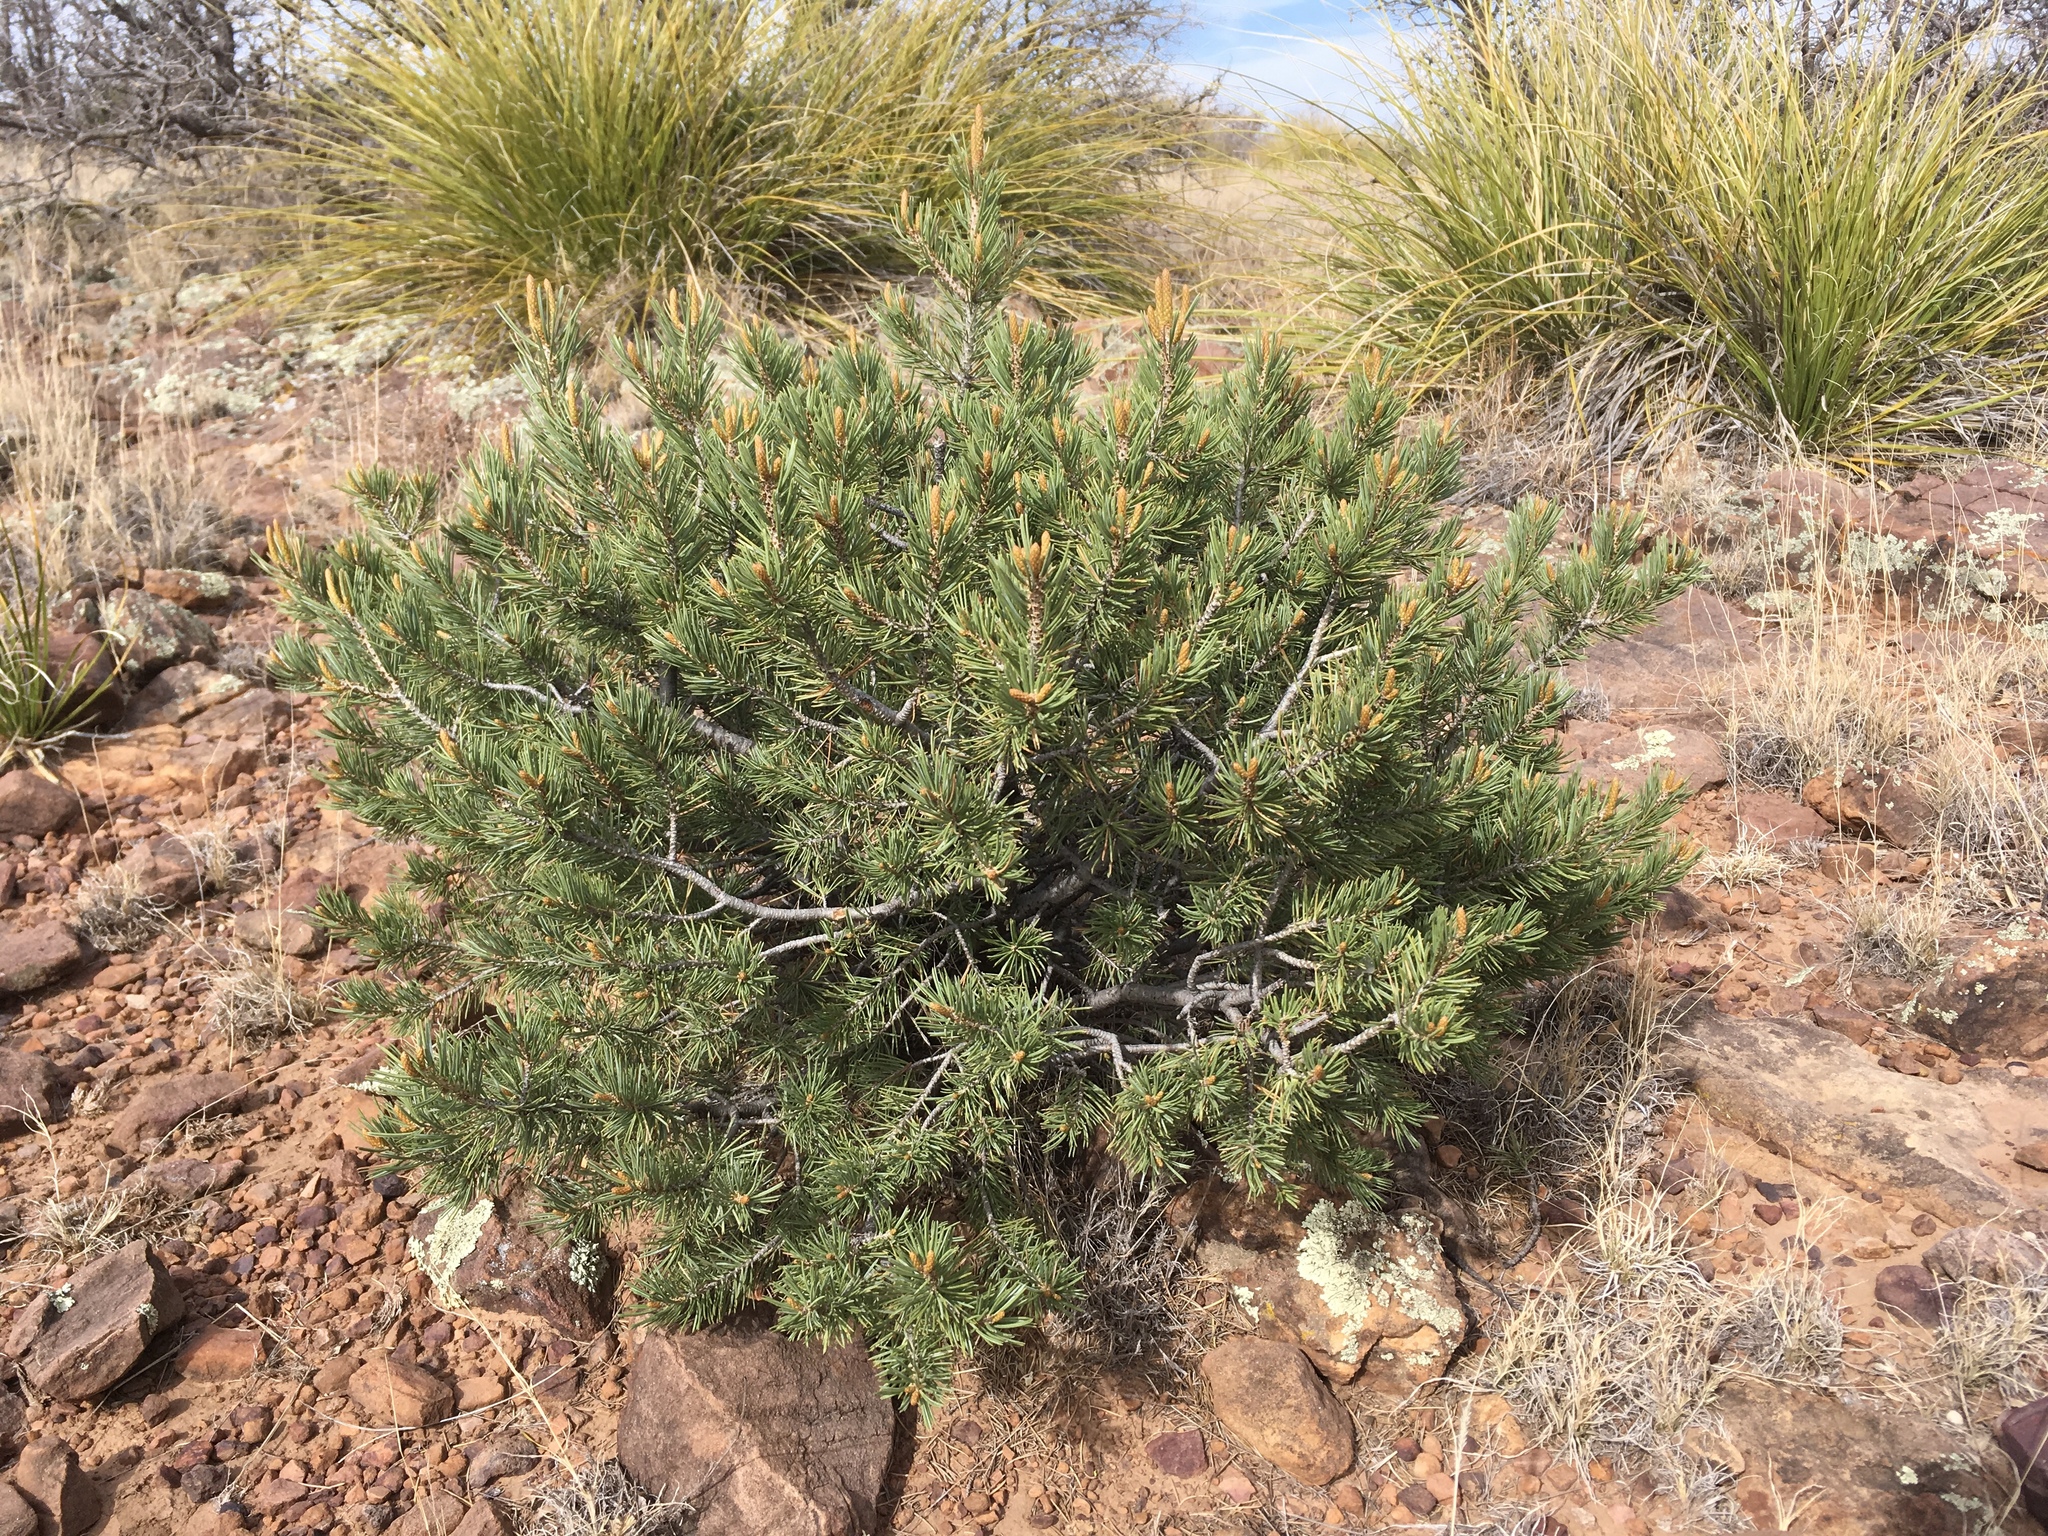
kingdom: Plantae
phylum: Tracheophyta
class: Pinopsida
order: Pinales
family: Pinaceae
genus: Pinus
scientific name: Pinus edulis
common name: Colorado pinyon
